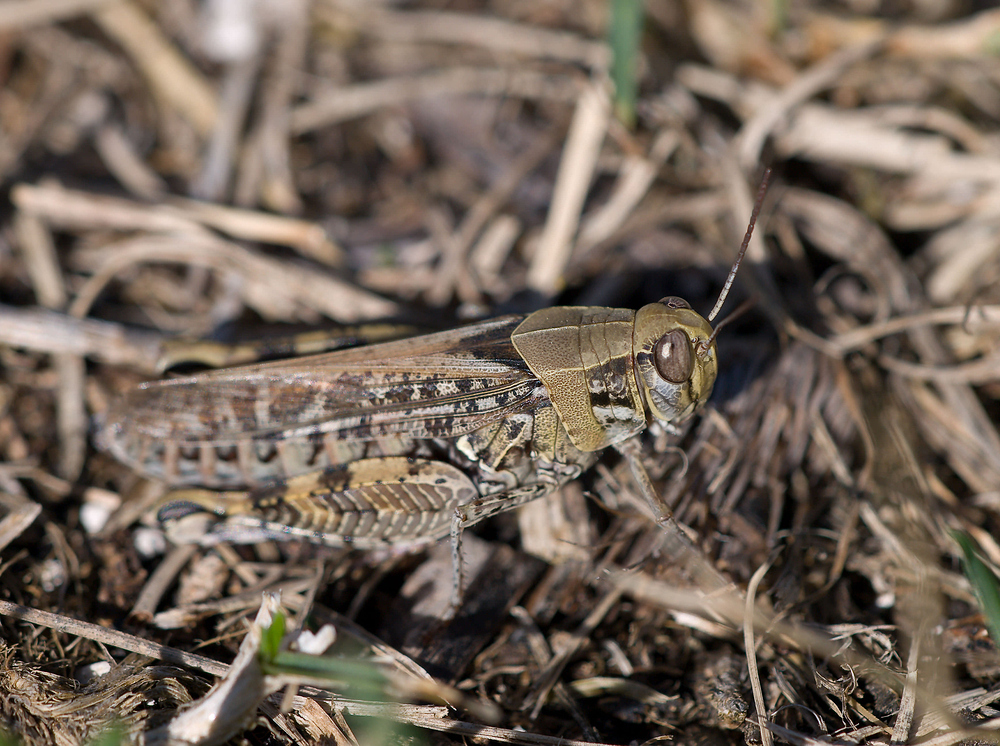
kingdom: Animalia
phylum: Arthropoda
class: Insecta
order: Orthoptera
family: Acrididae
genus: Calliptamus
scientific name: Calliptamus italicus
